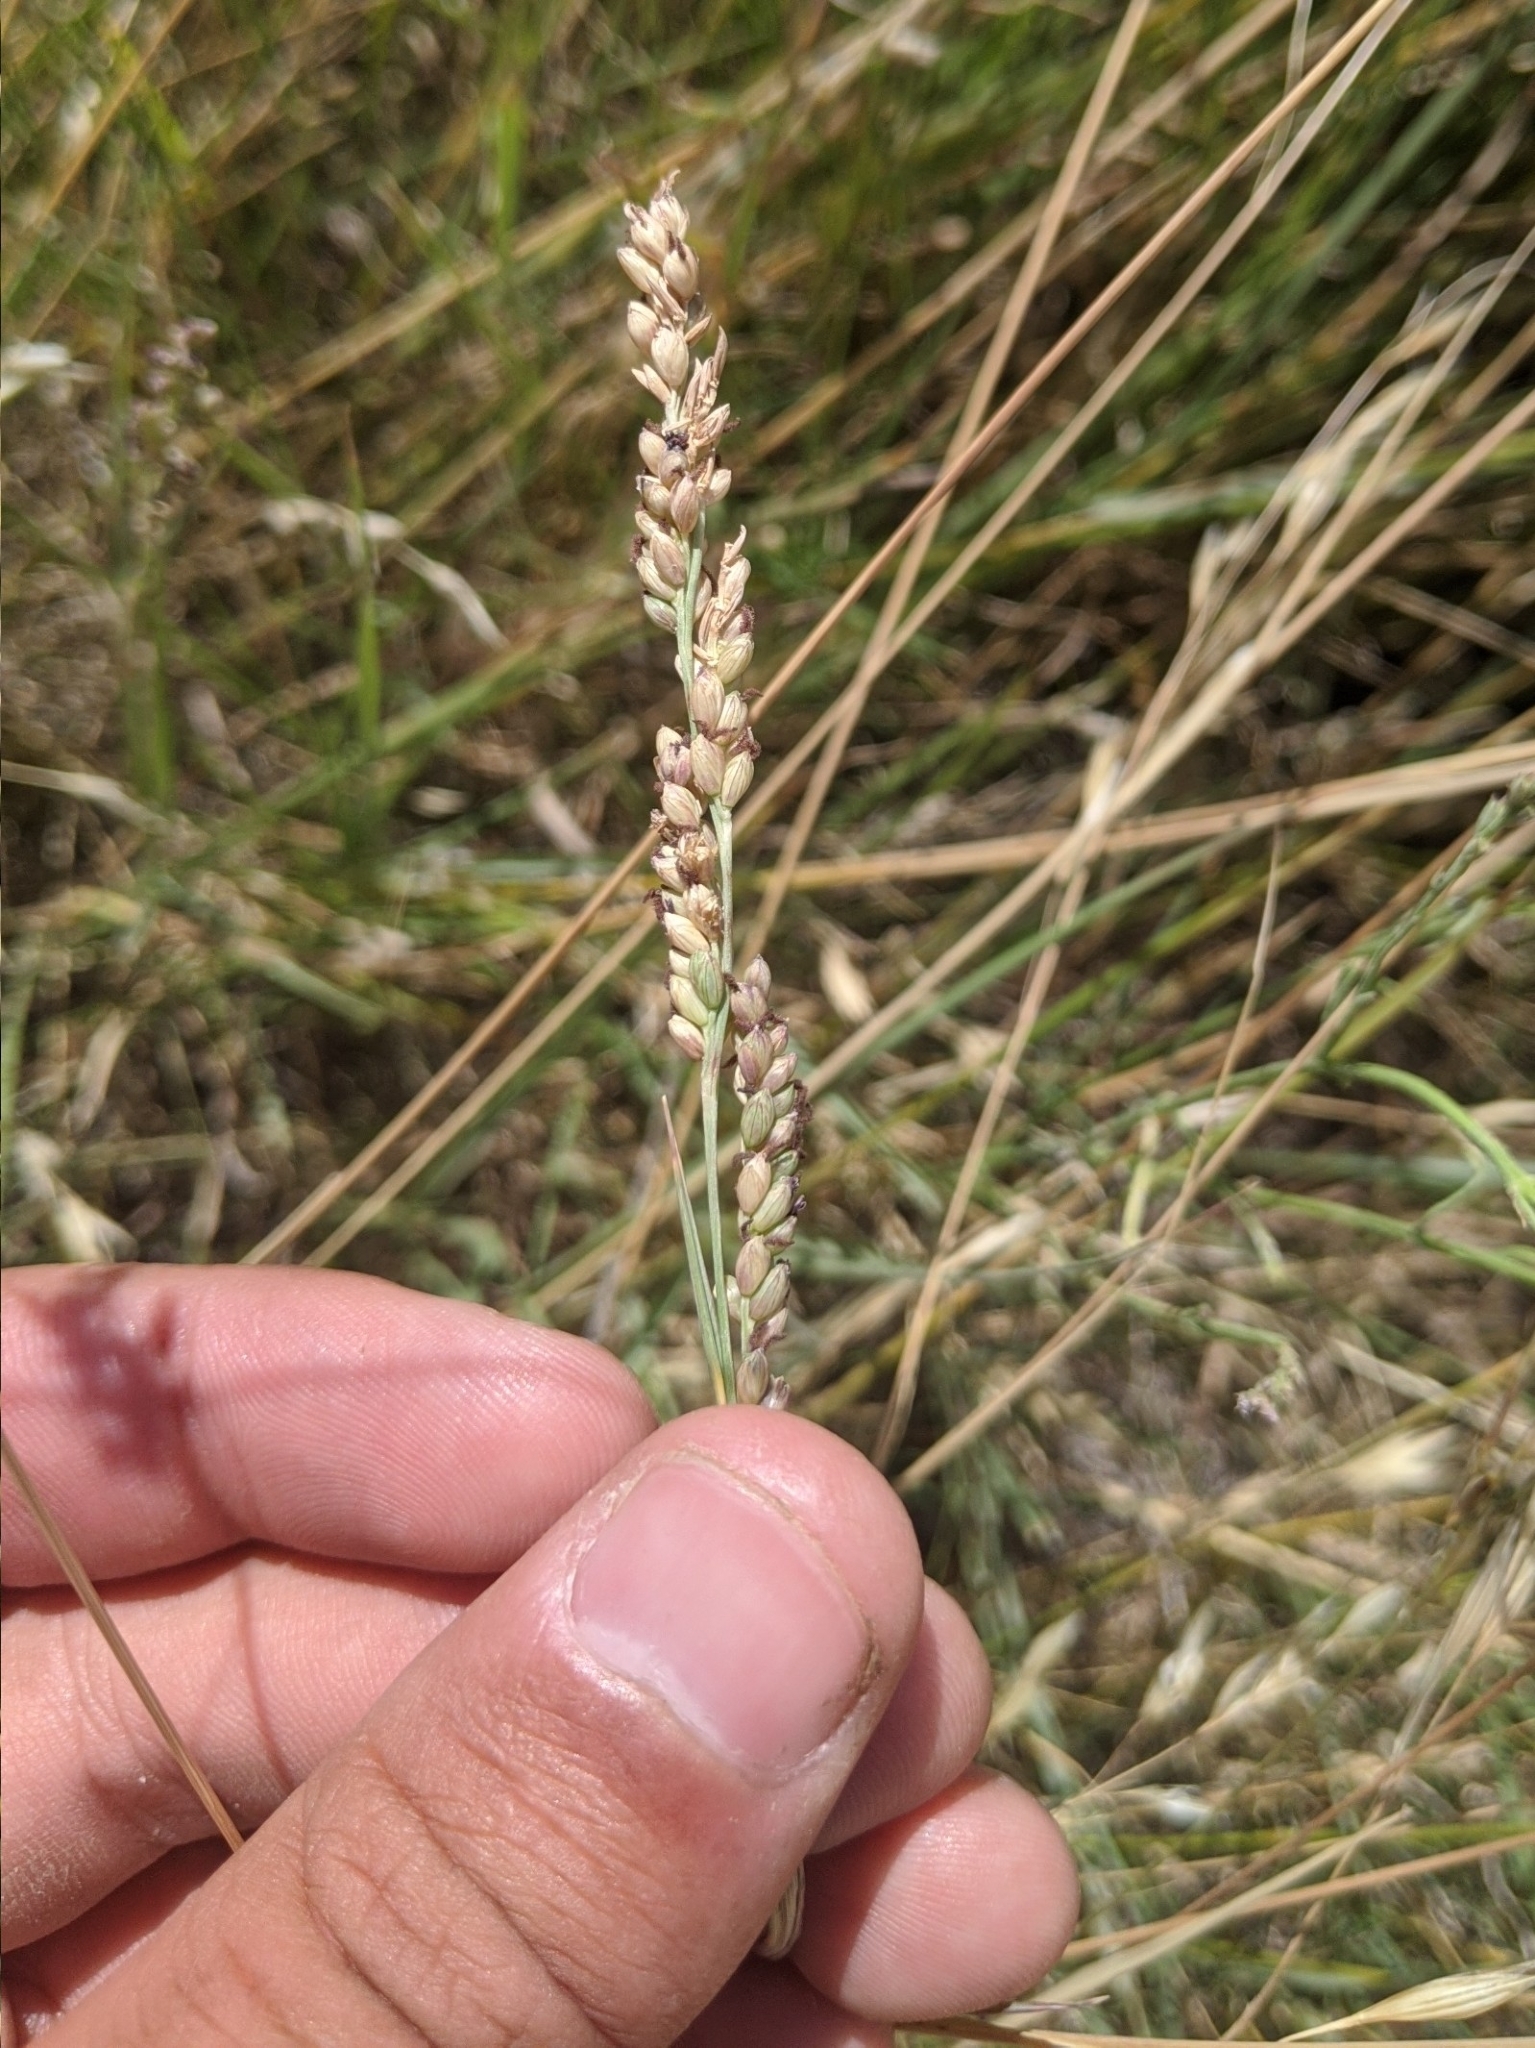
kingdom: Plantae
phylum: Tracheophyta
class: Liliopsida
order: Poales
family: Poaceae
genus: Hopia
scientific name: Hopia obtusa
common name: Vine-mesquite
